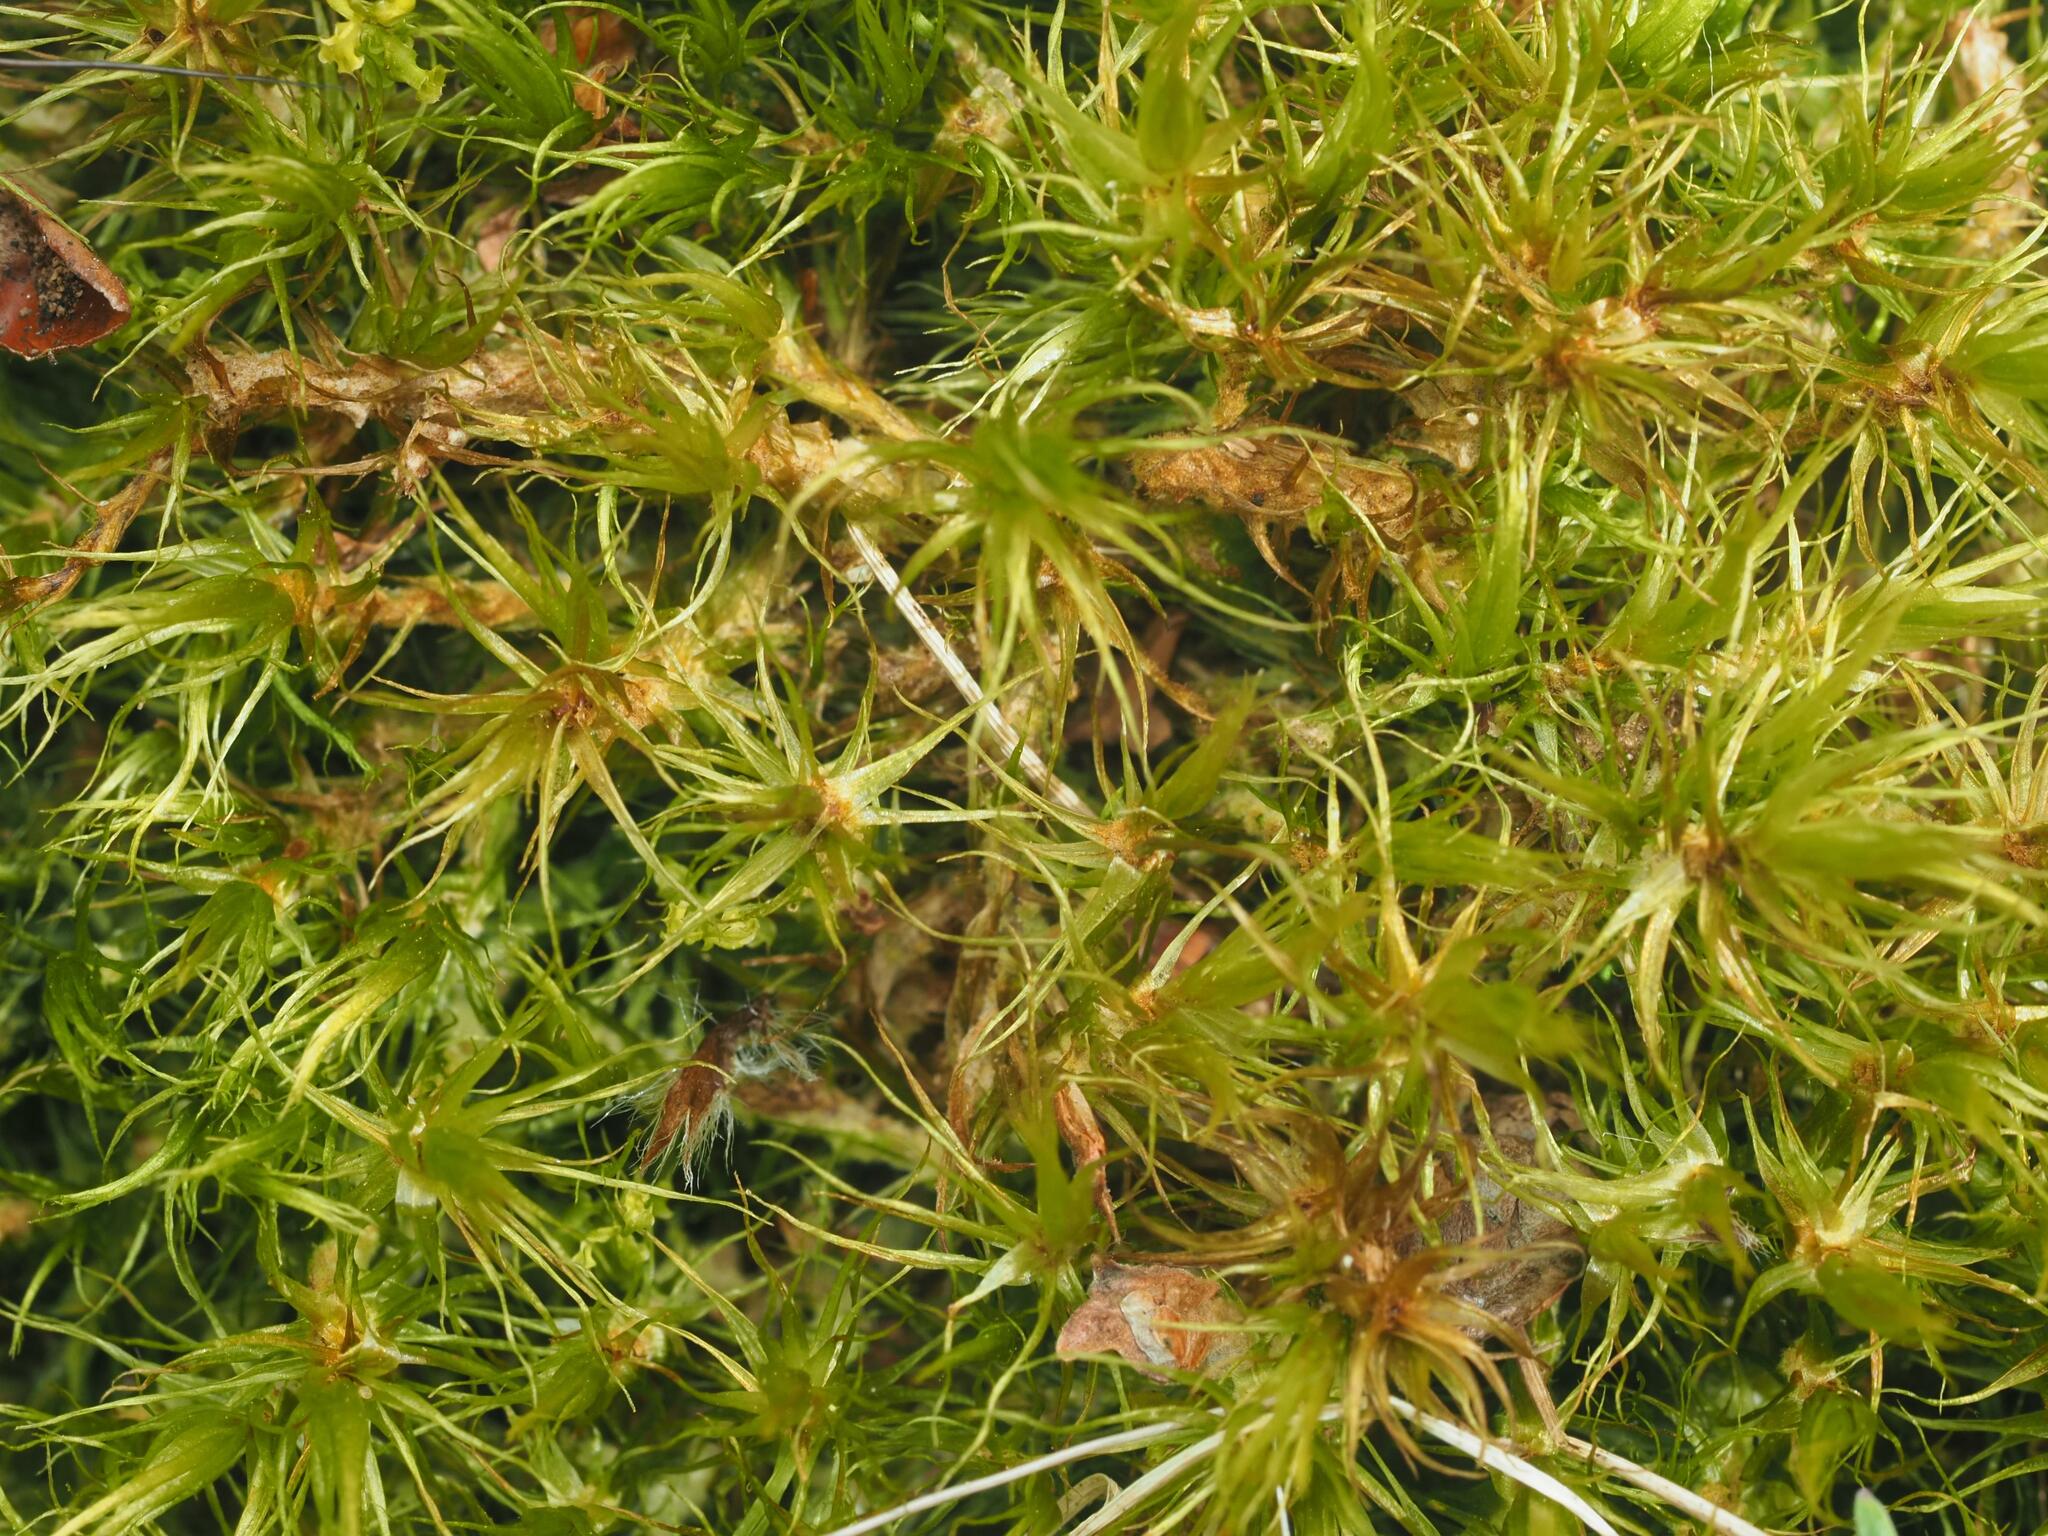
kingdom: Plantae
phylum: Bryophyta
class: Bryopsida
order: Dicranales
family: Dicranaceae
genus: Dicranum
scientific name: Dicranum scoparium
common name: Broom fork-moss
